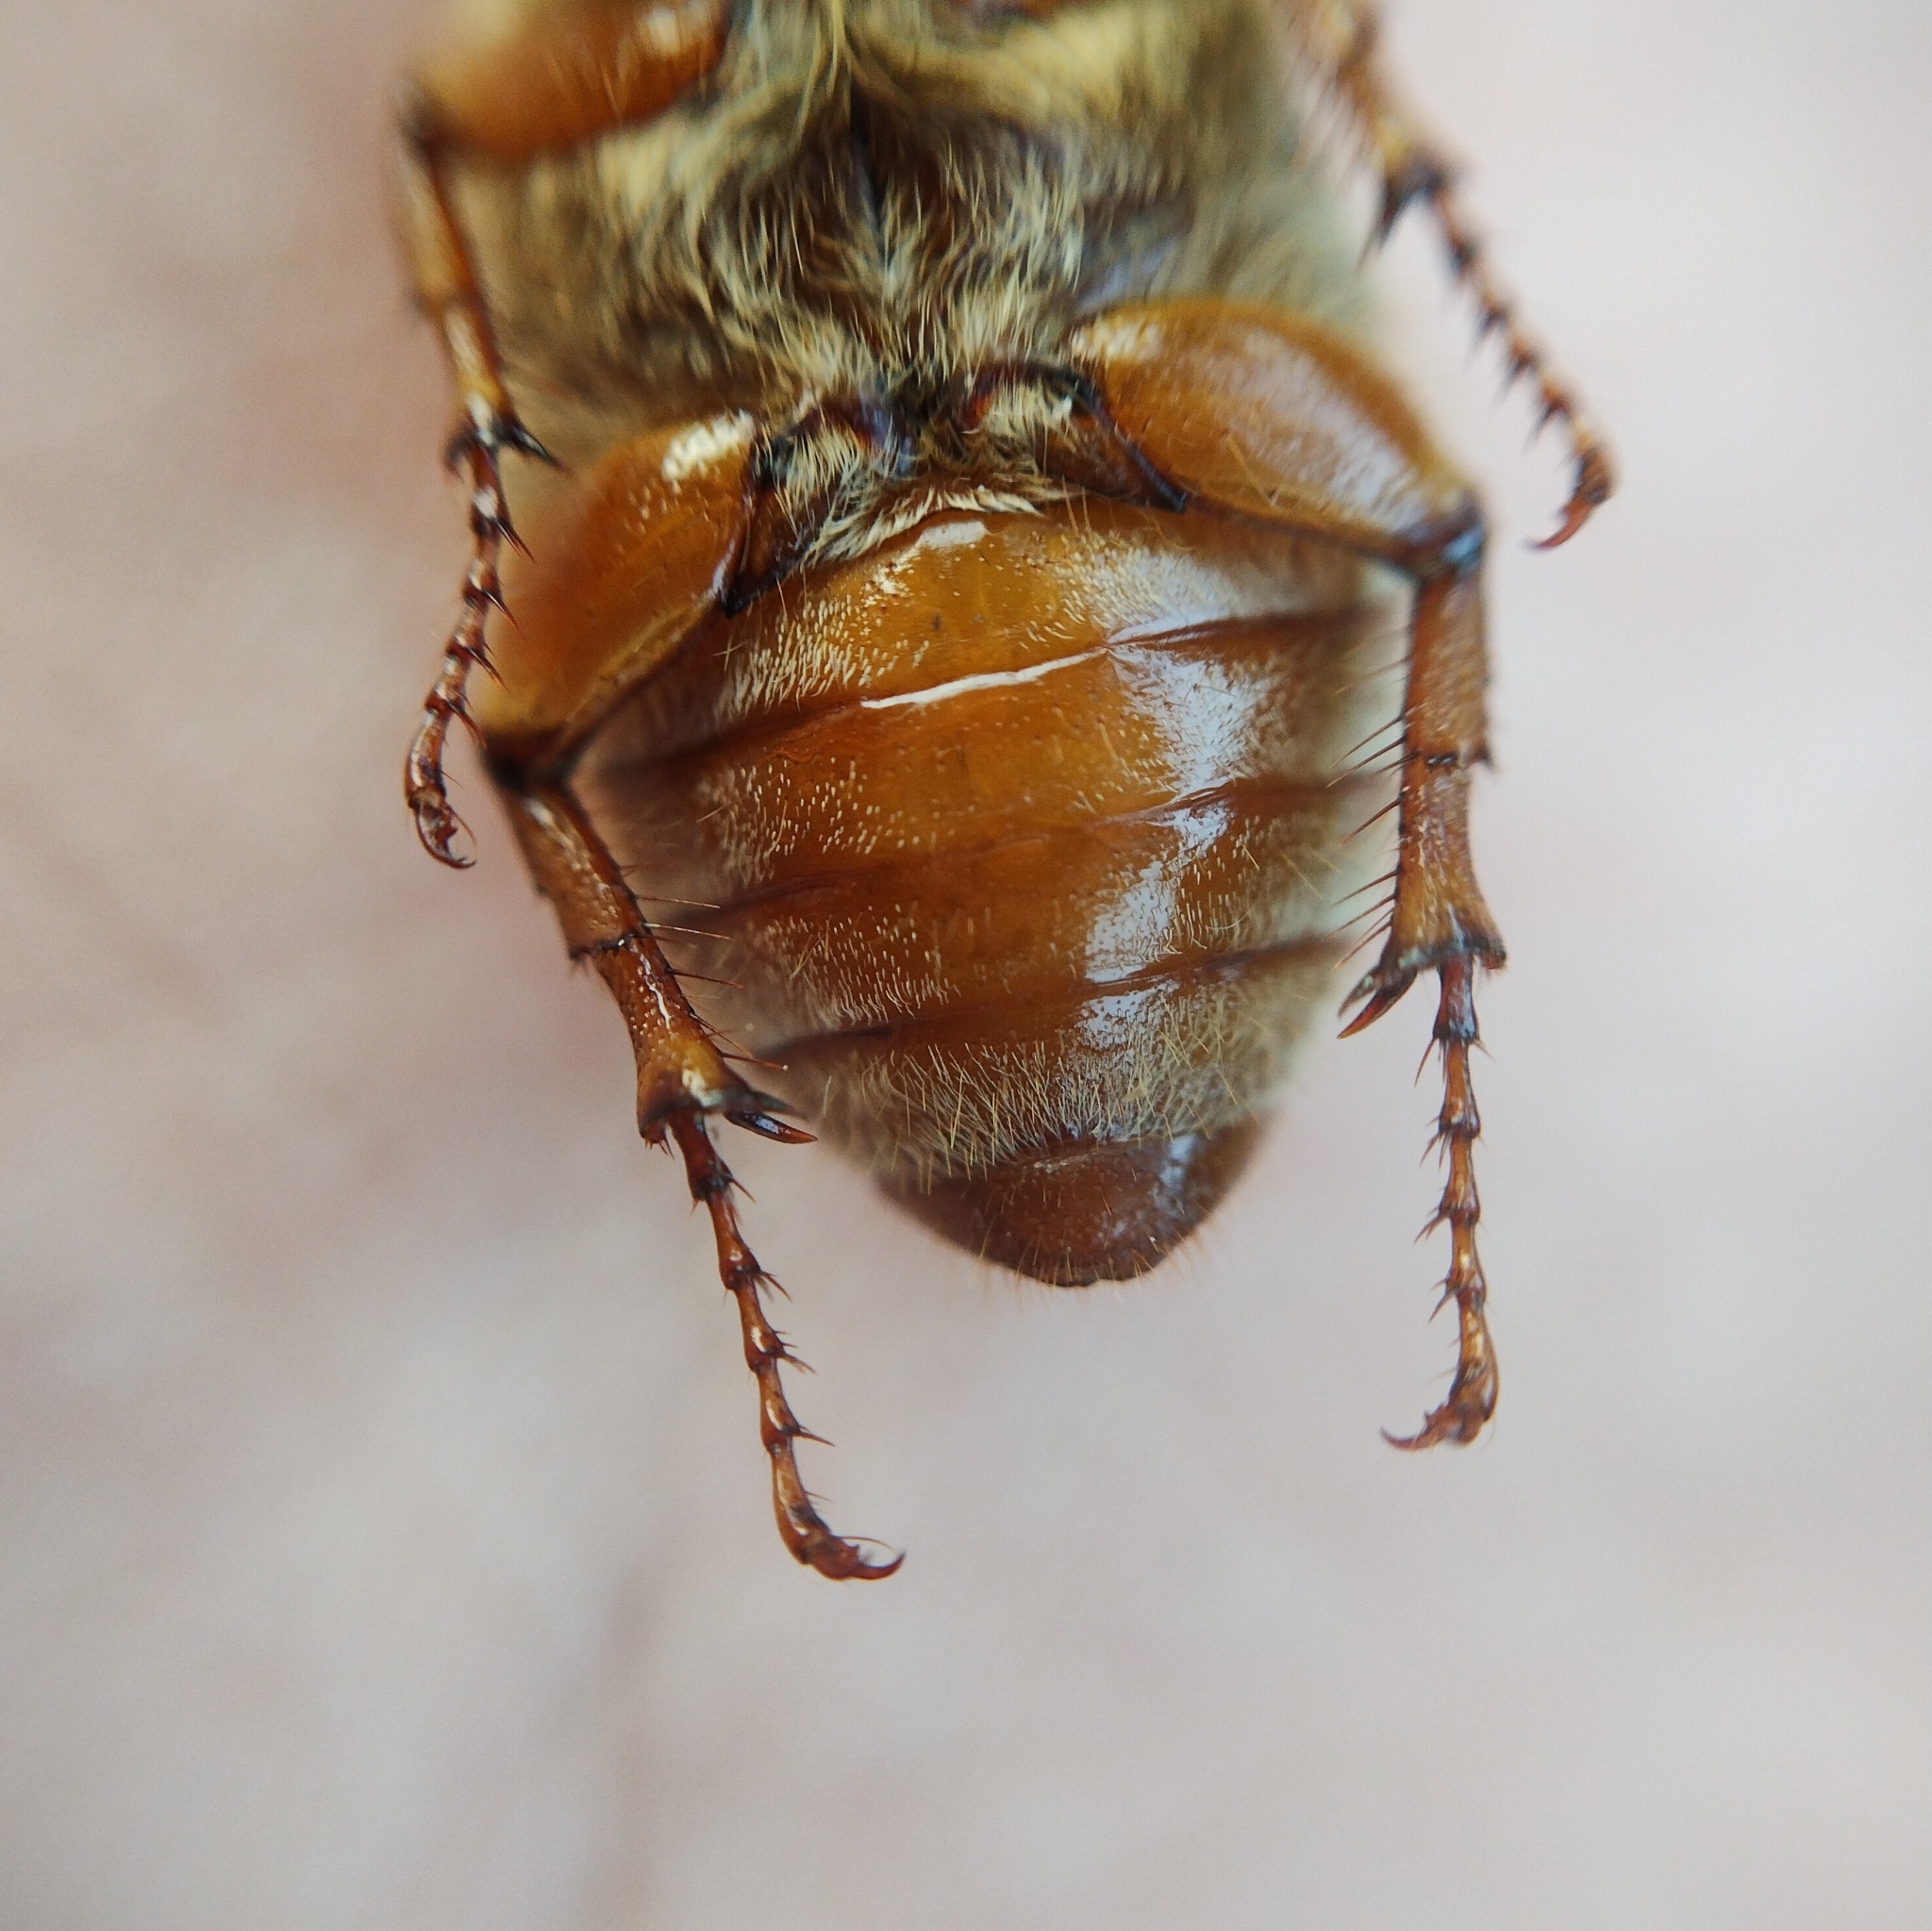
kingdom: Animalia
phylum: Arthropoda
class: Insecta
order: Coleoptera
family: Scarabaeidae
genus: Amphimallon
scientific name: Amphimallon solstitiale
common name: Summer chafer
